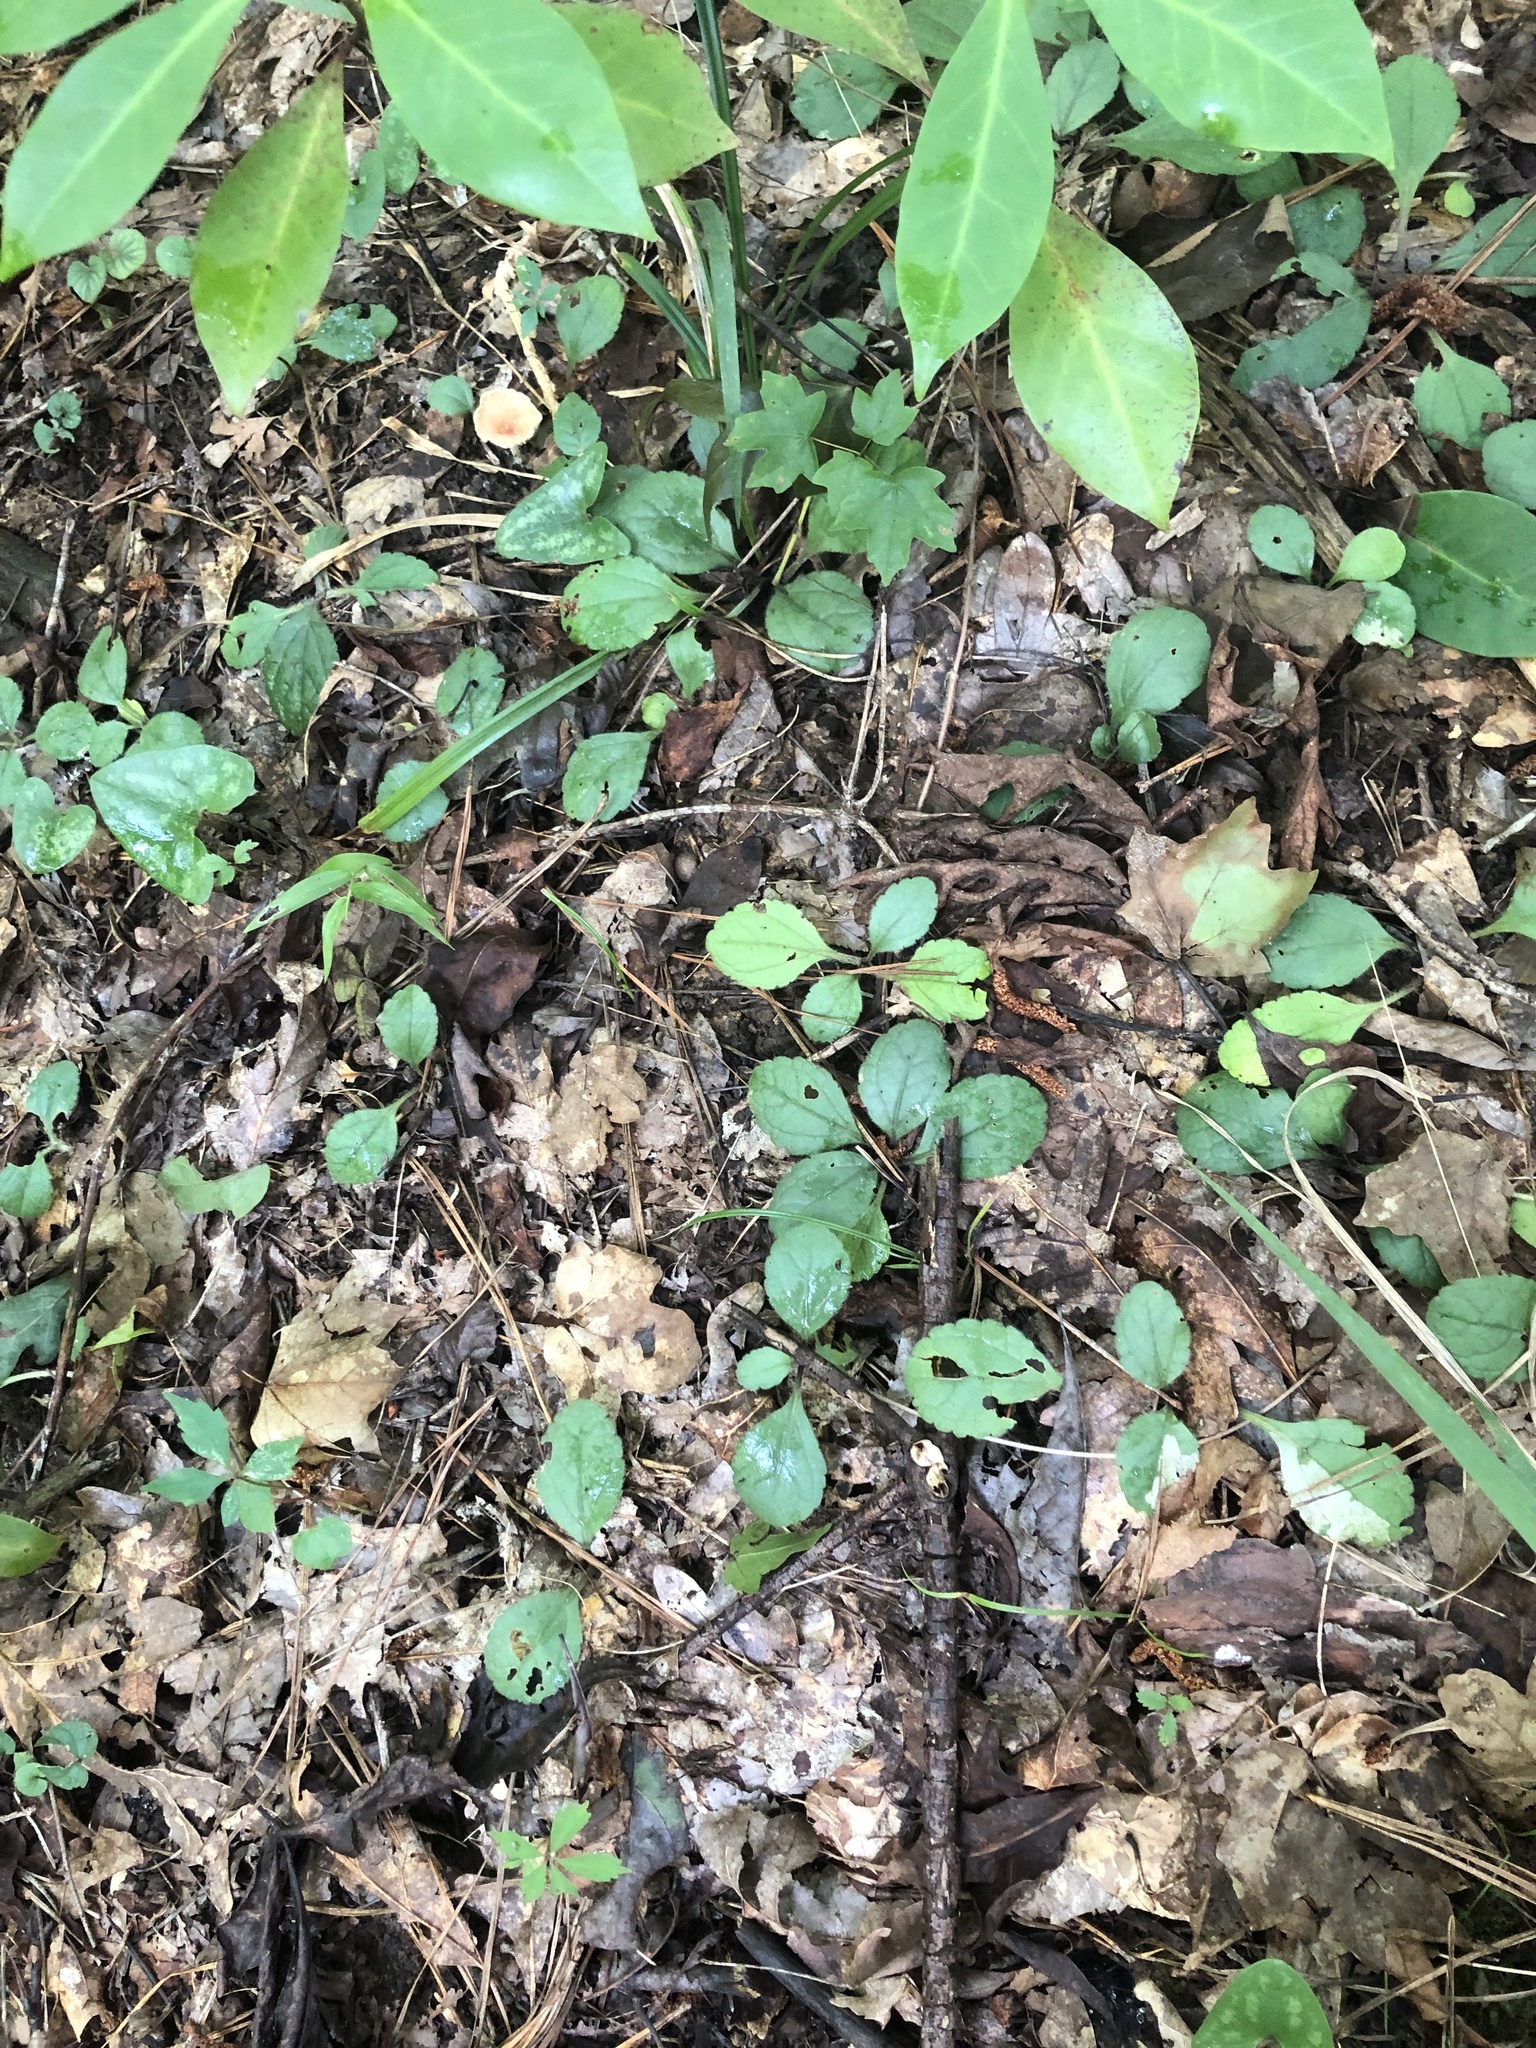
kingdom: Plantae
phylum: Tracheophyta
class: Magnoliopsida
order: Asterales
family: Asteraceae
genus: Chrysogonum
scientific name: Chrysogonum australe
